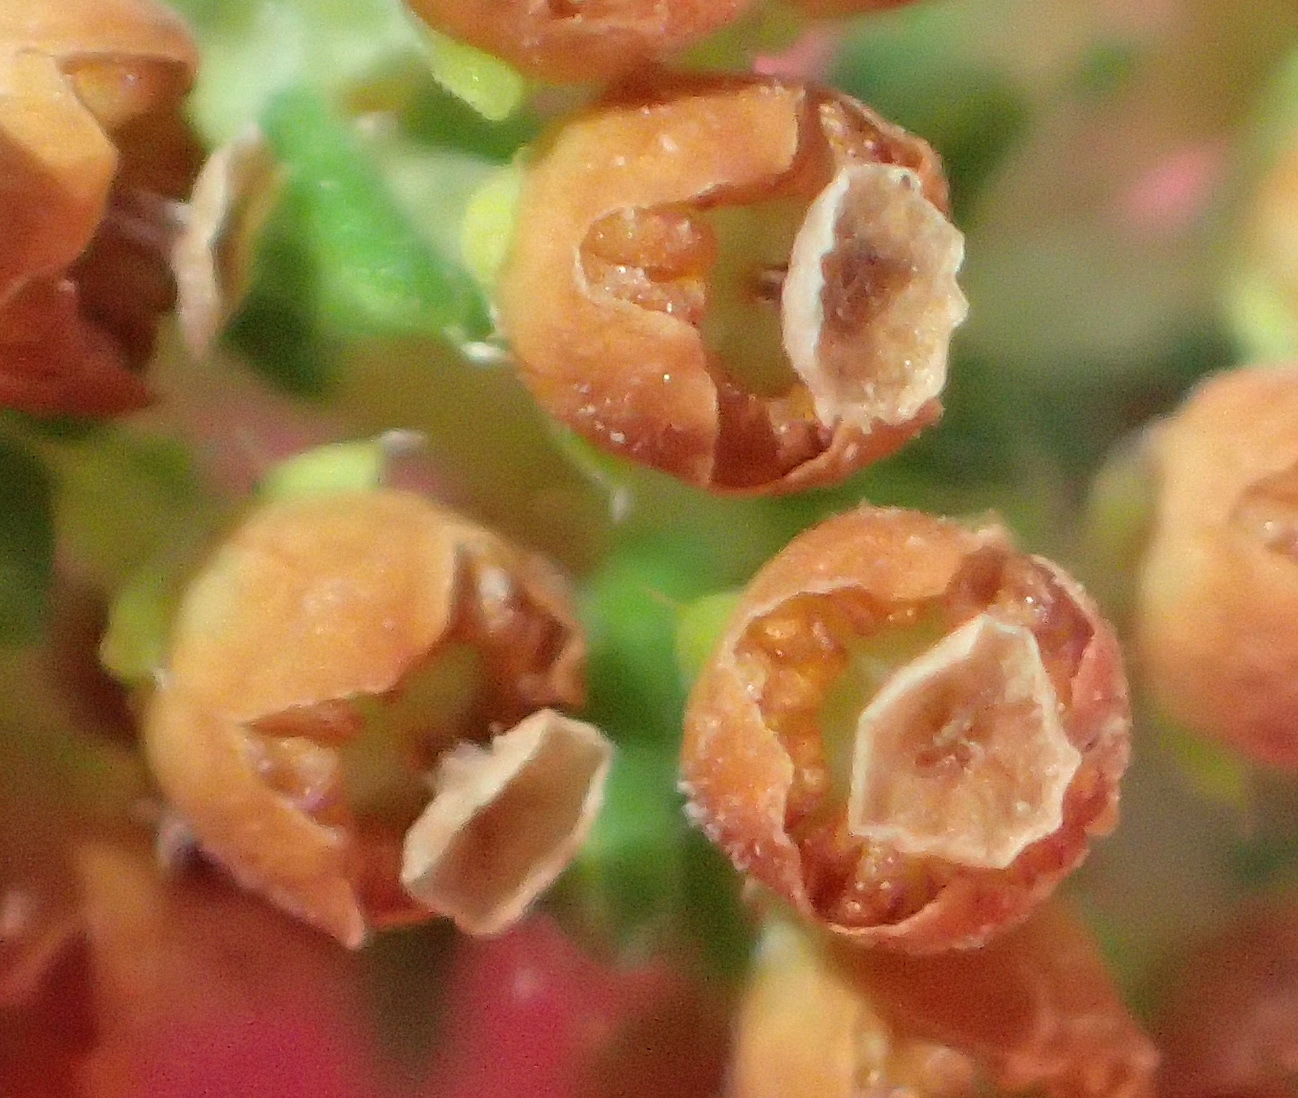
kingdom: Plantae
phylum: Tracheophyta
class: Magnoliopsida
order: Ericales
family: Ericaceae
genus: Erica
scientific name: Erica leucopelta
